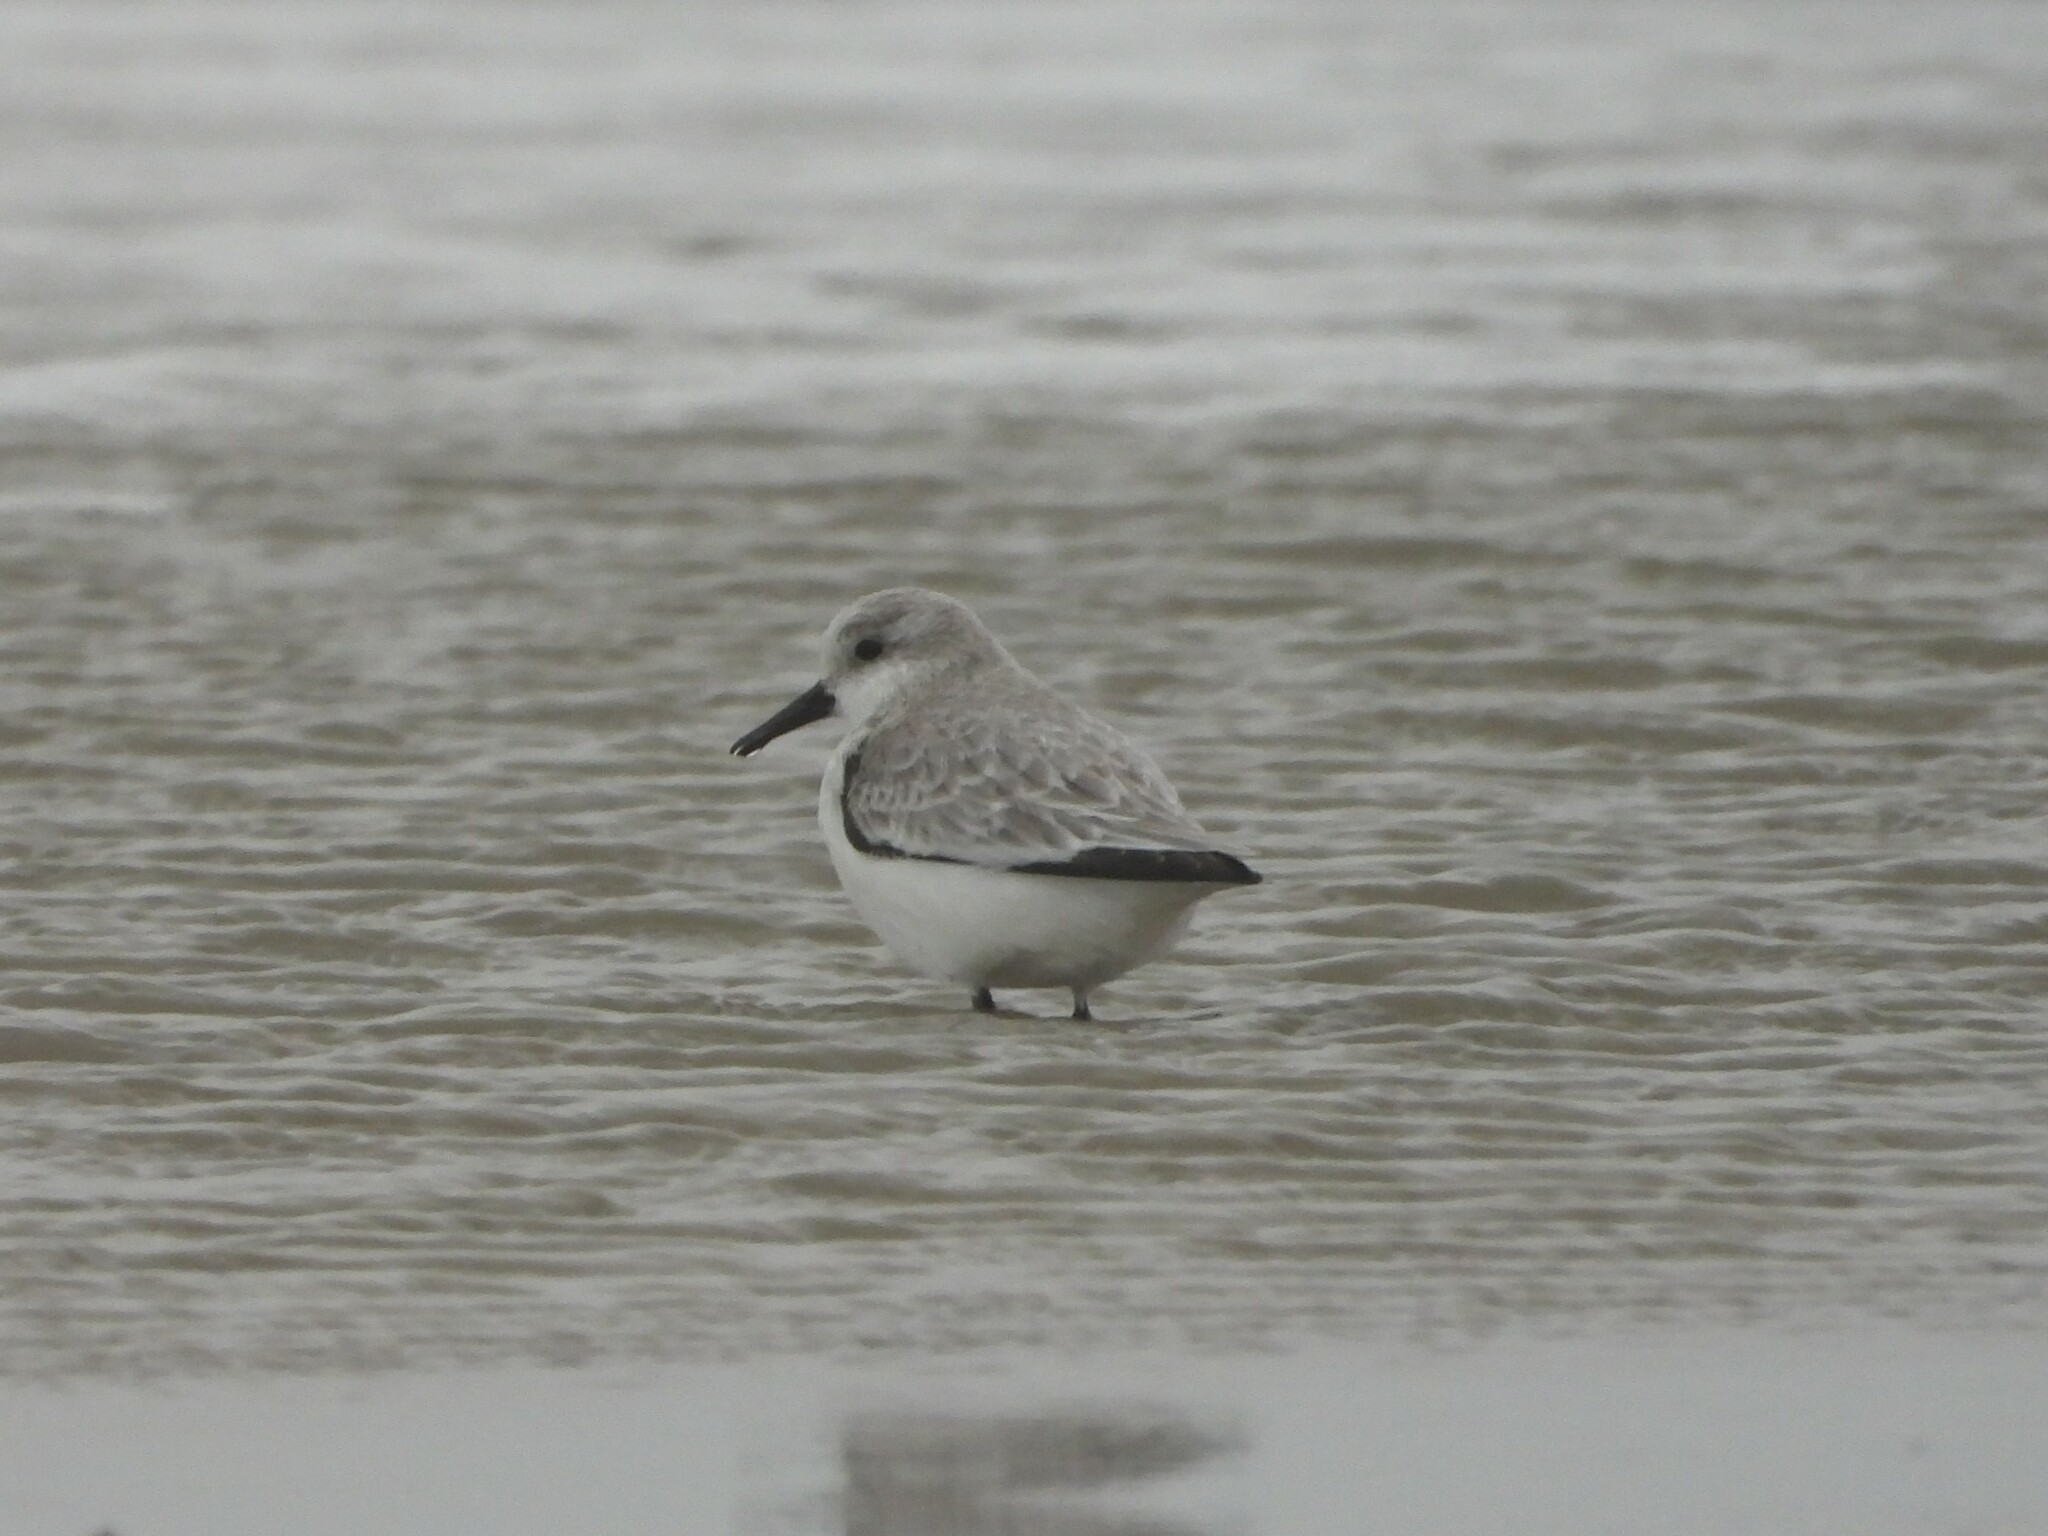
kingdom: Animalia
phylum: Chordata
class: Aves
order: Charadriiformes
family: Scolopacidae
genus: Calidris
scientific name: Calidris alba
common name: Sanderling
